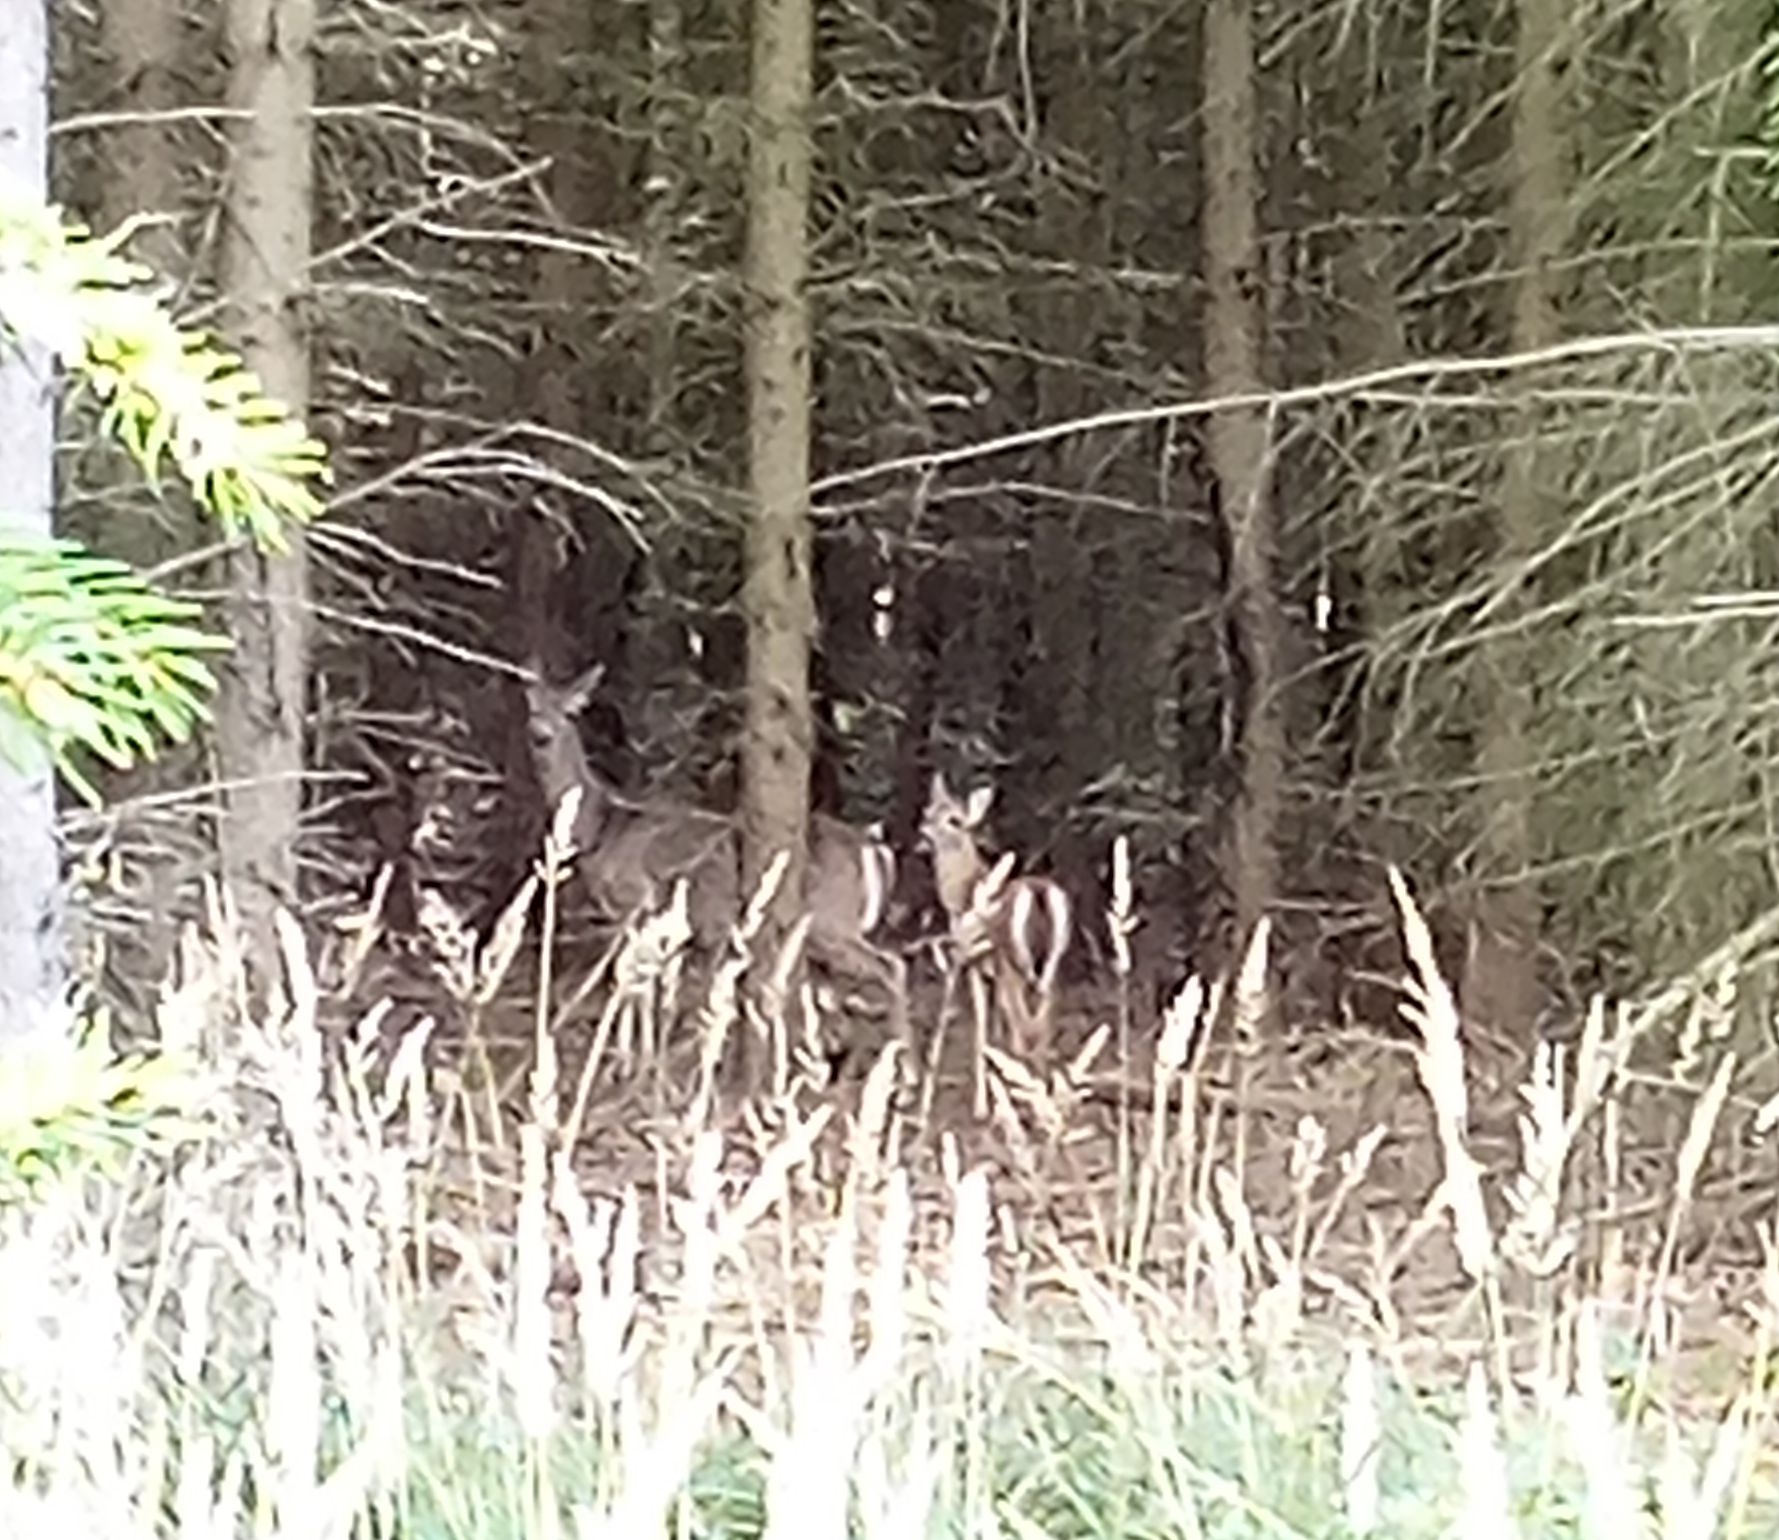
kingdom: Animalia
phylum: Chordata
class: Mammalia
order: Artiodactyla
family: Cervidae
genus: Odocoileus
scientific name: Odocoileus virginianus
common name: White-tailed deer
